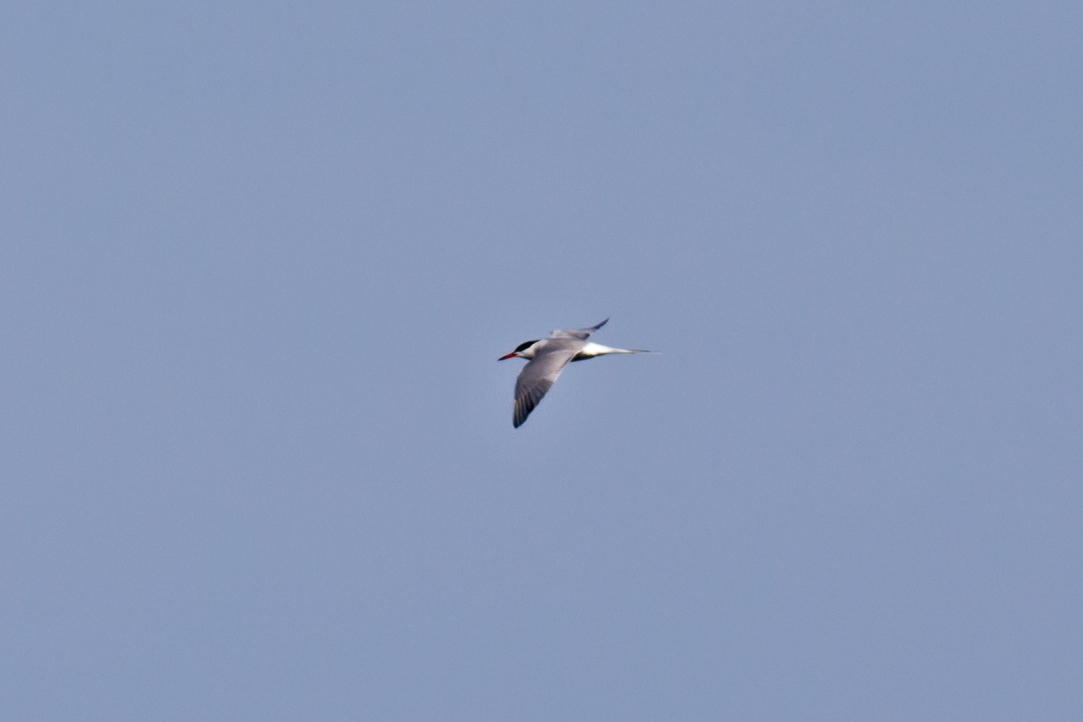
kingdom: Animalia
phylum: Chordata
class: Aves
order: Charadriiformes
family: Laridae
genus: Sterna
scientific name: Sterna hirundo
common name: Common tern
